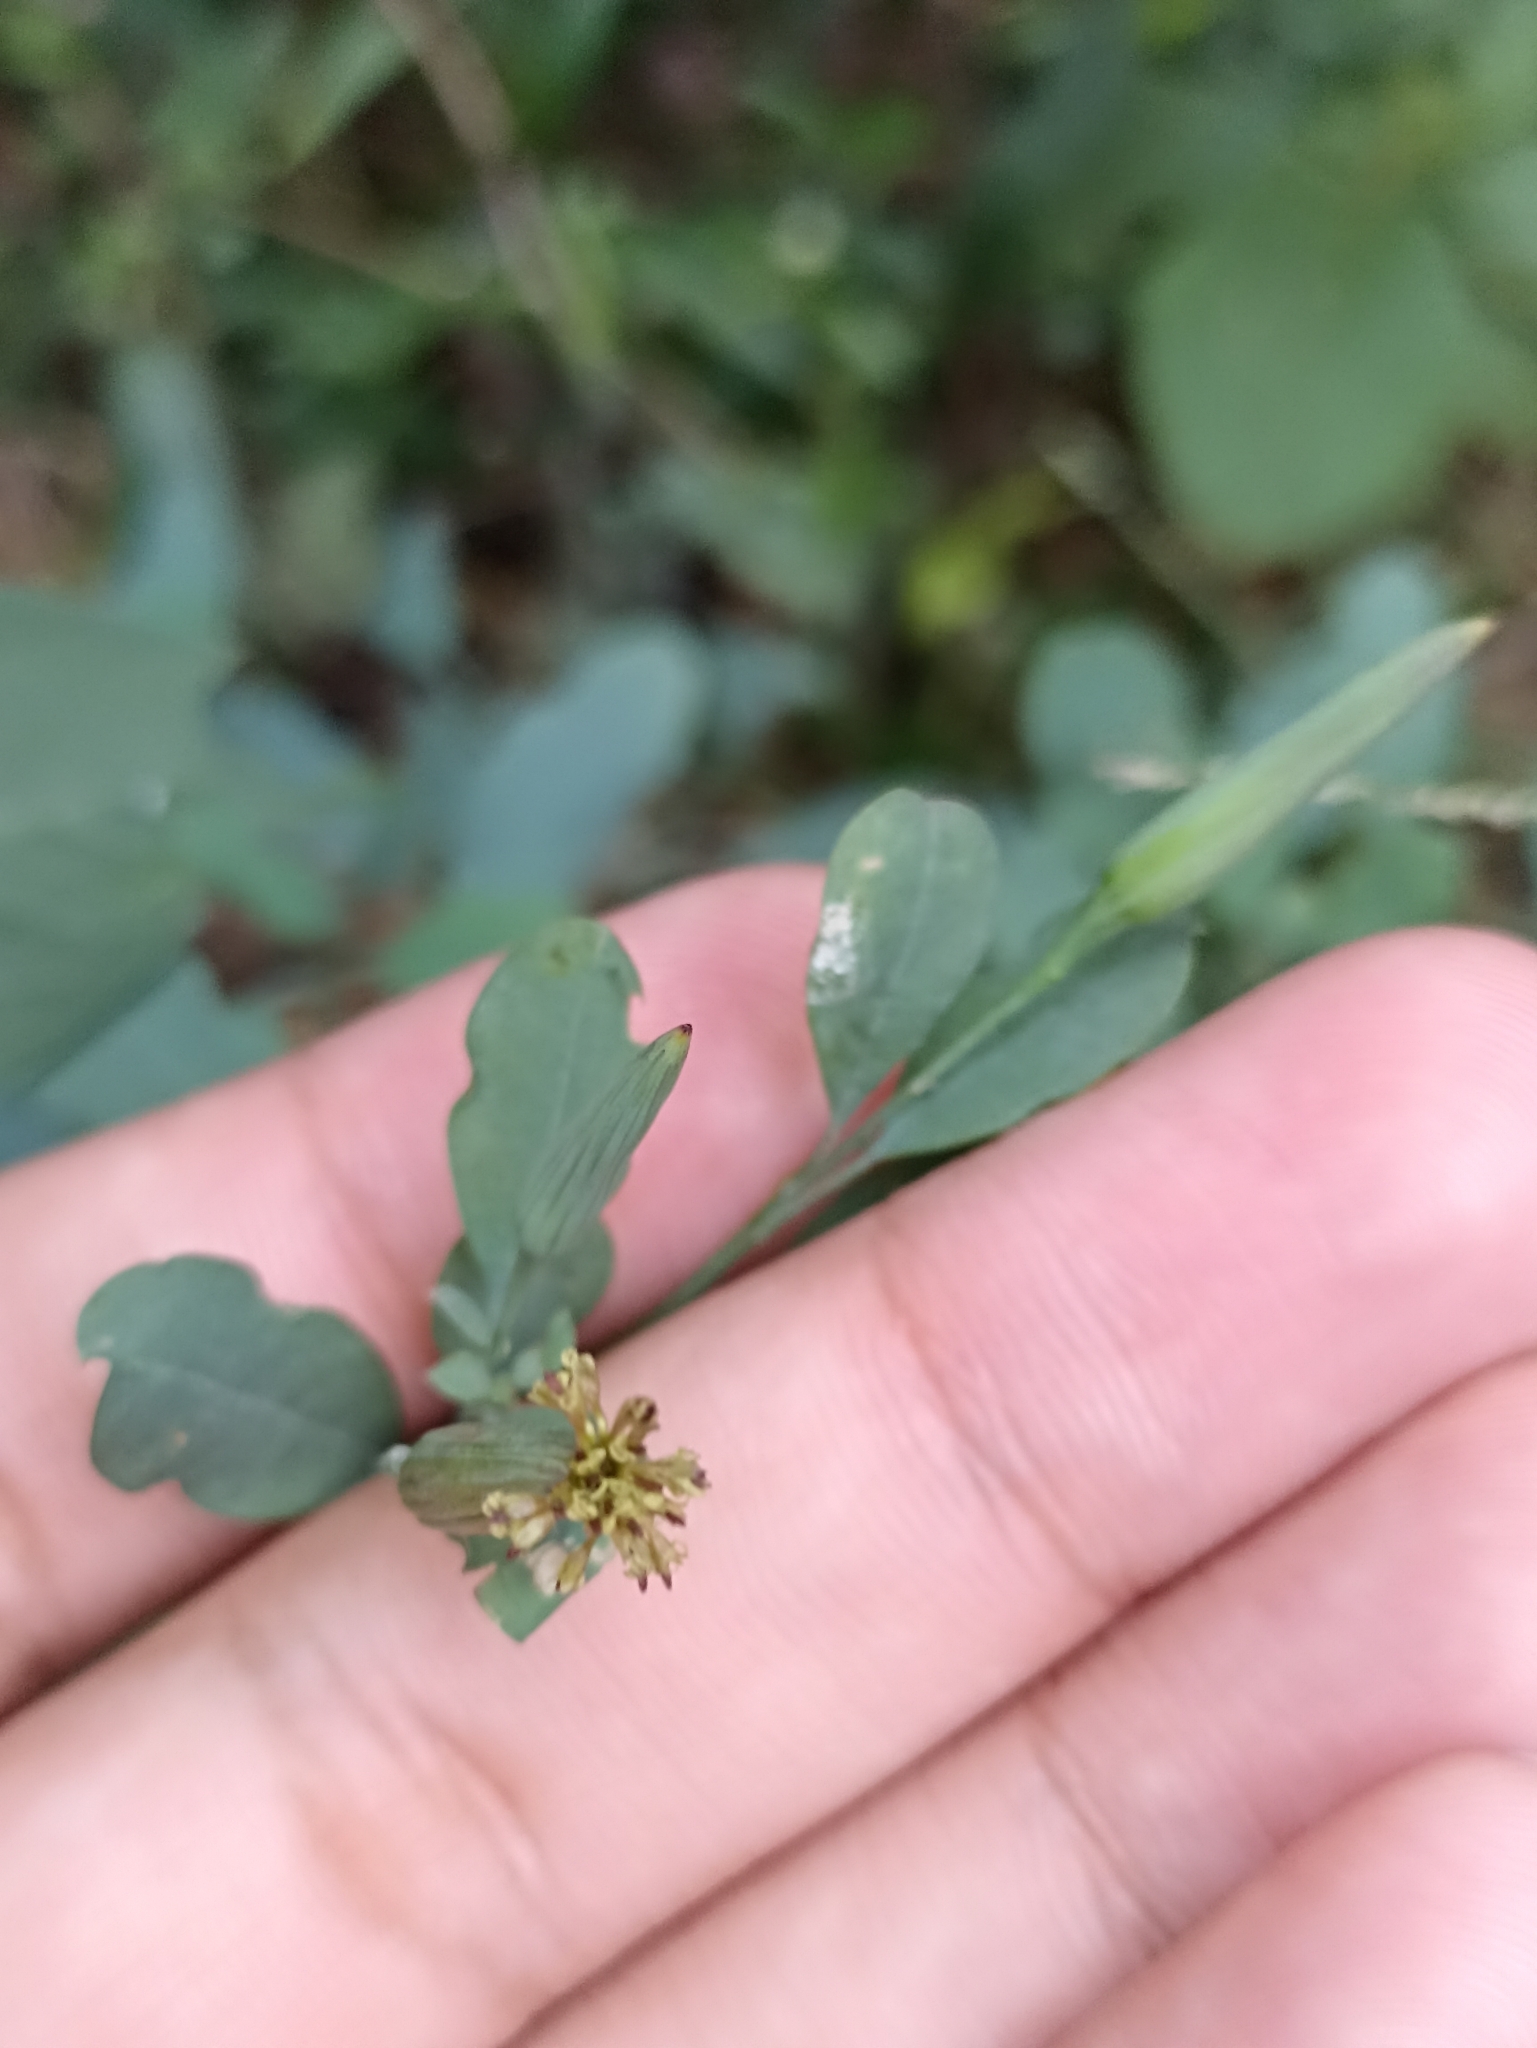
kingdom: Plantae
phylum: Tracheophyta
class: Magnoliopsida
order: Asterales
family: Asteraceae
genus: Porophyllum
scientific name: Porophyllum ruderale
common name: Yerba porosa
